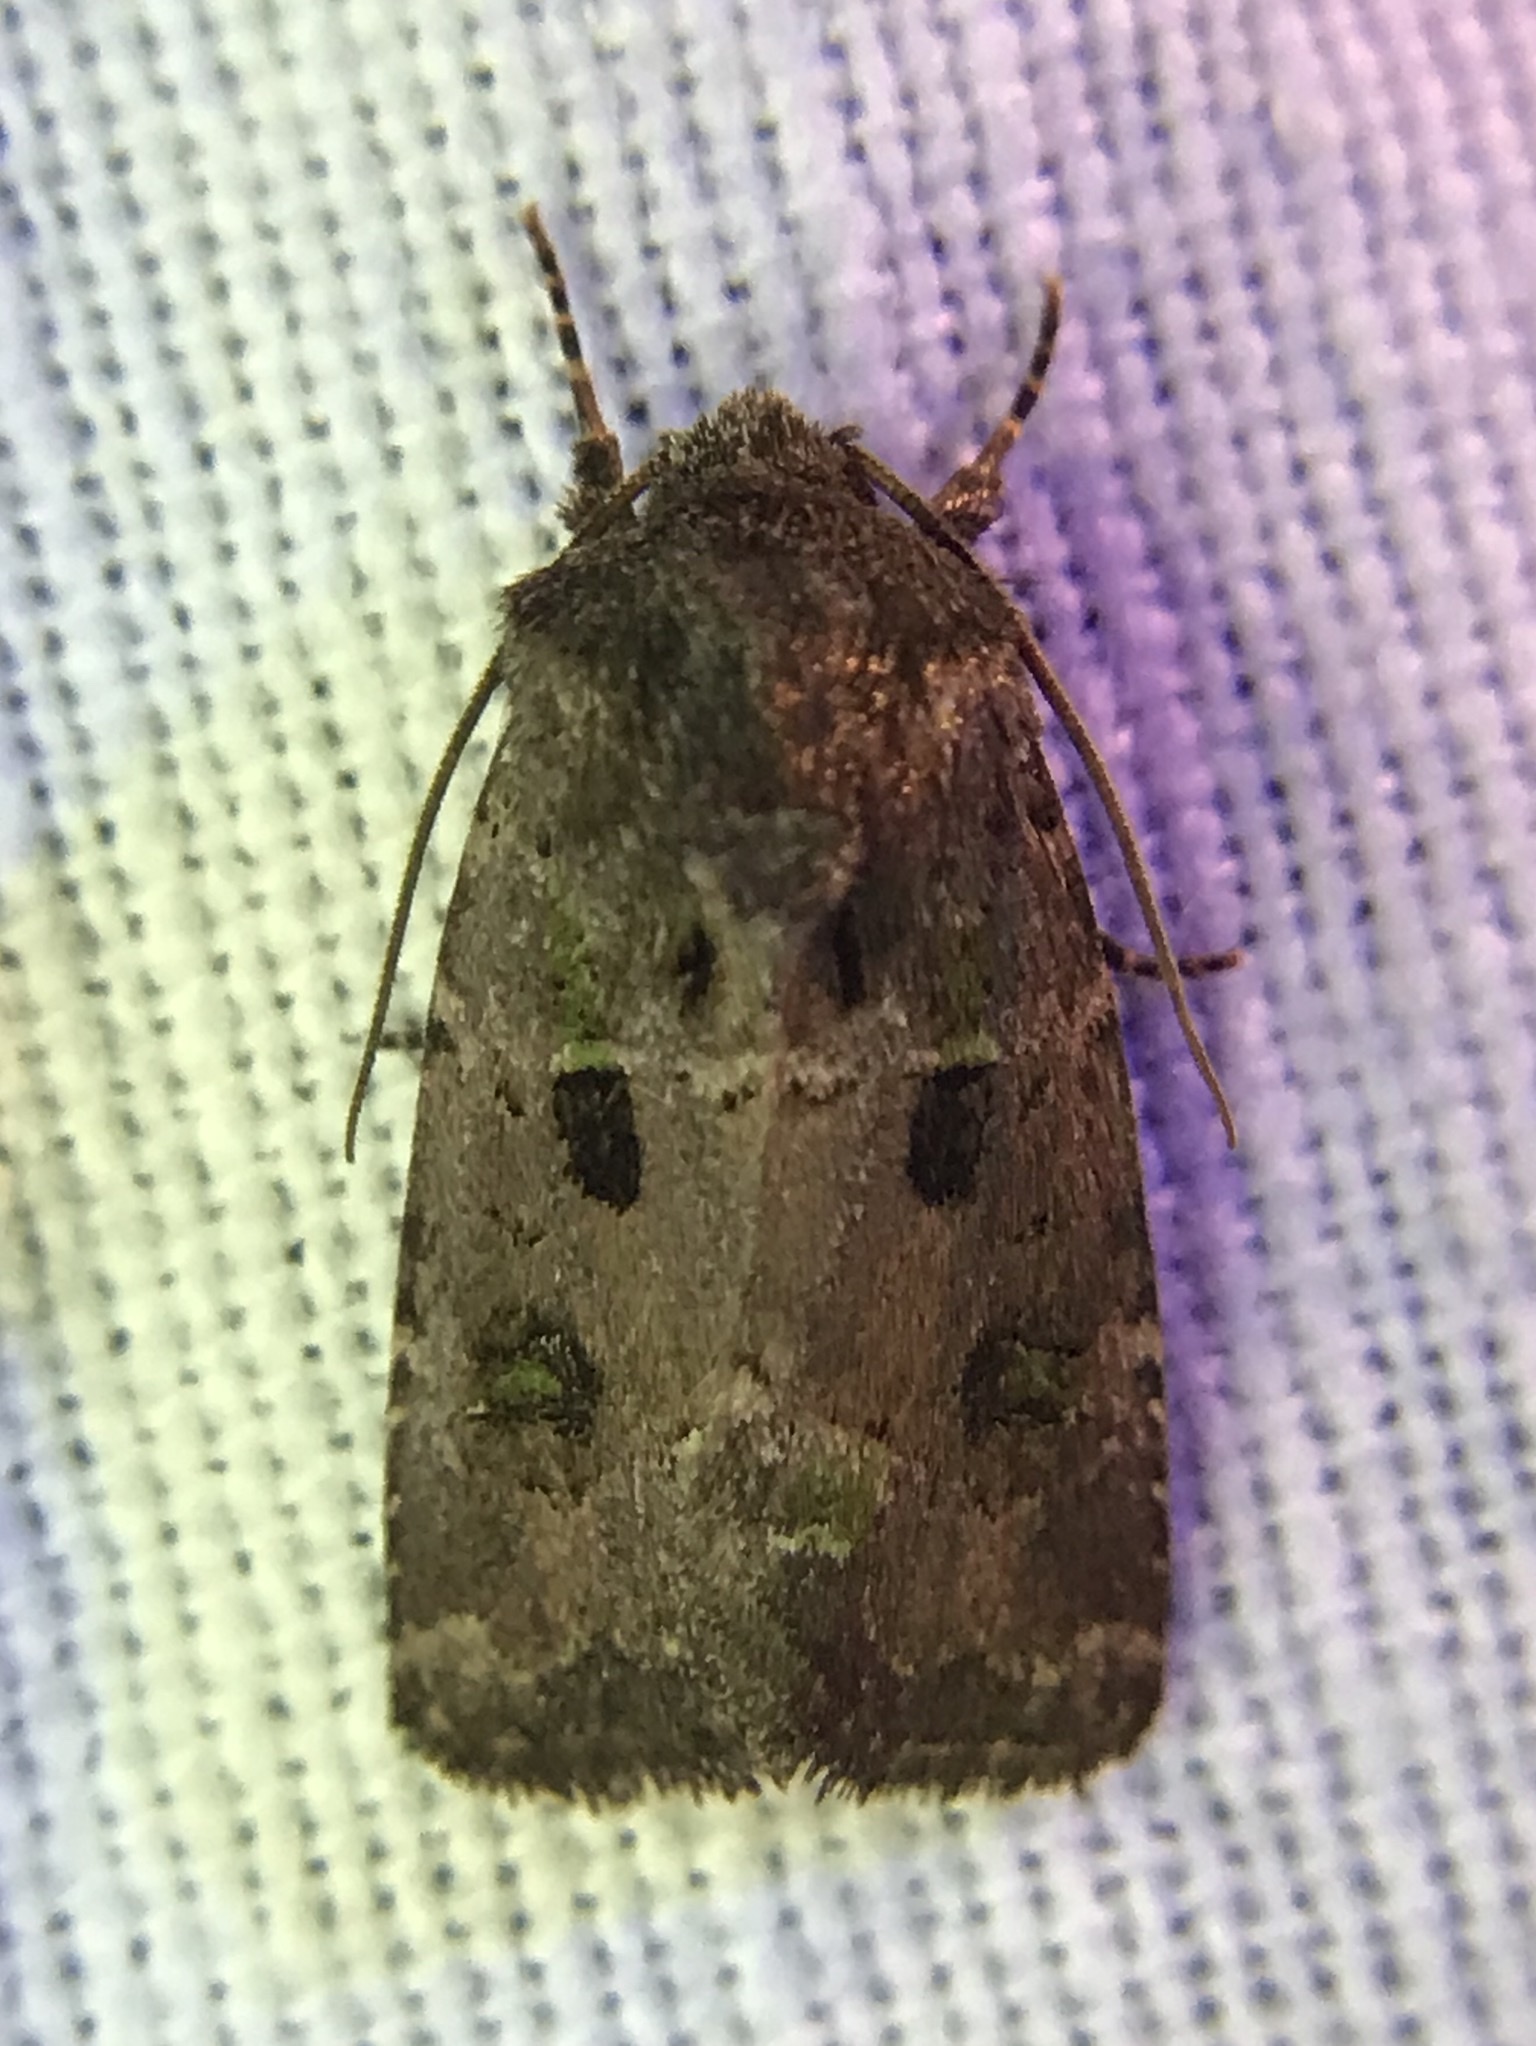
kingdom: Animalia
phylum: Arthropoda
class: Insecta
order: Lepidoptera
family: Noctuidae
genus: Lacinipolia
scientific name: Lacinipolia renigera
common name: Kidney-spotted minor
